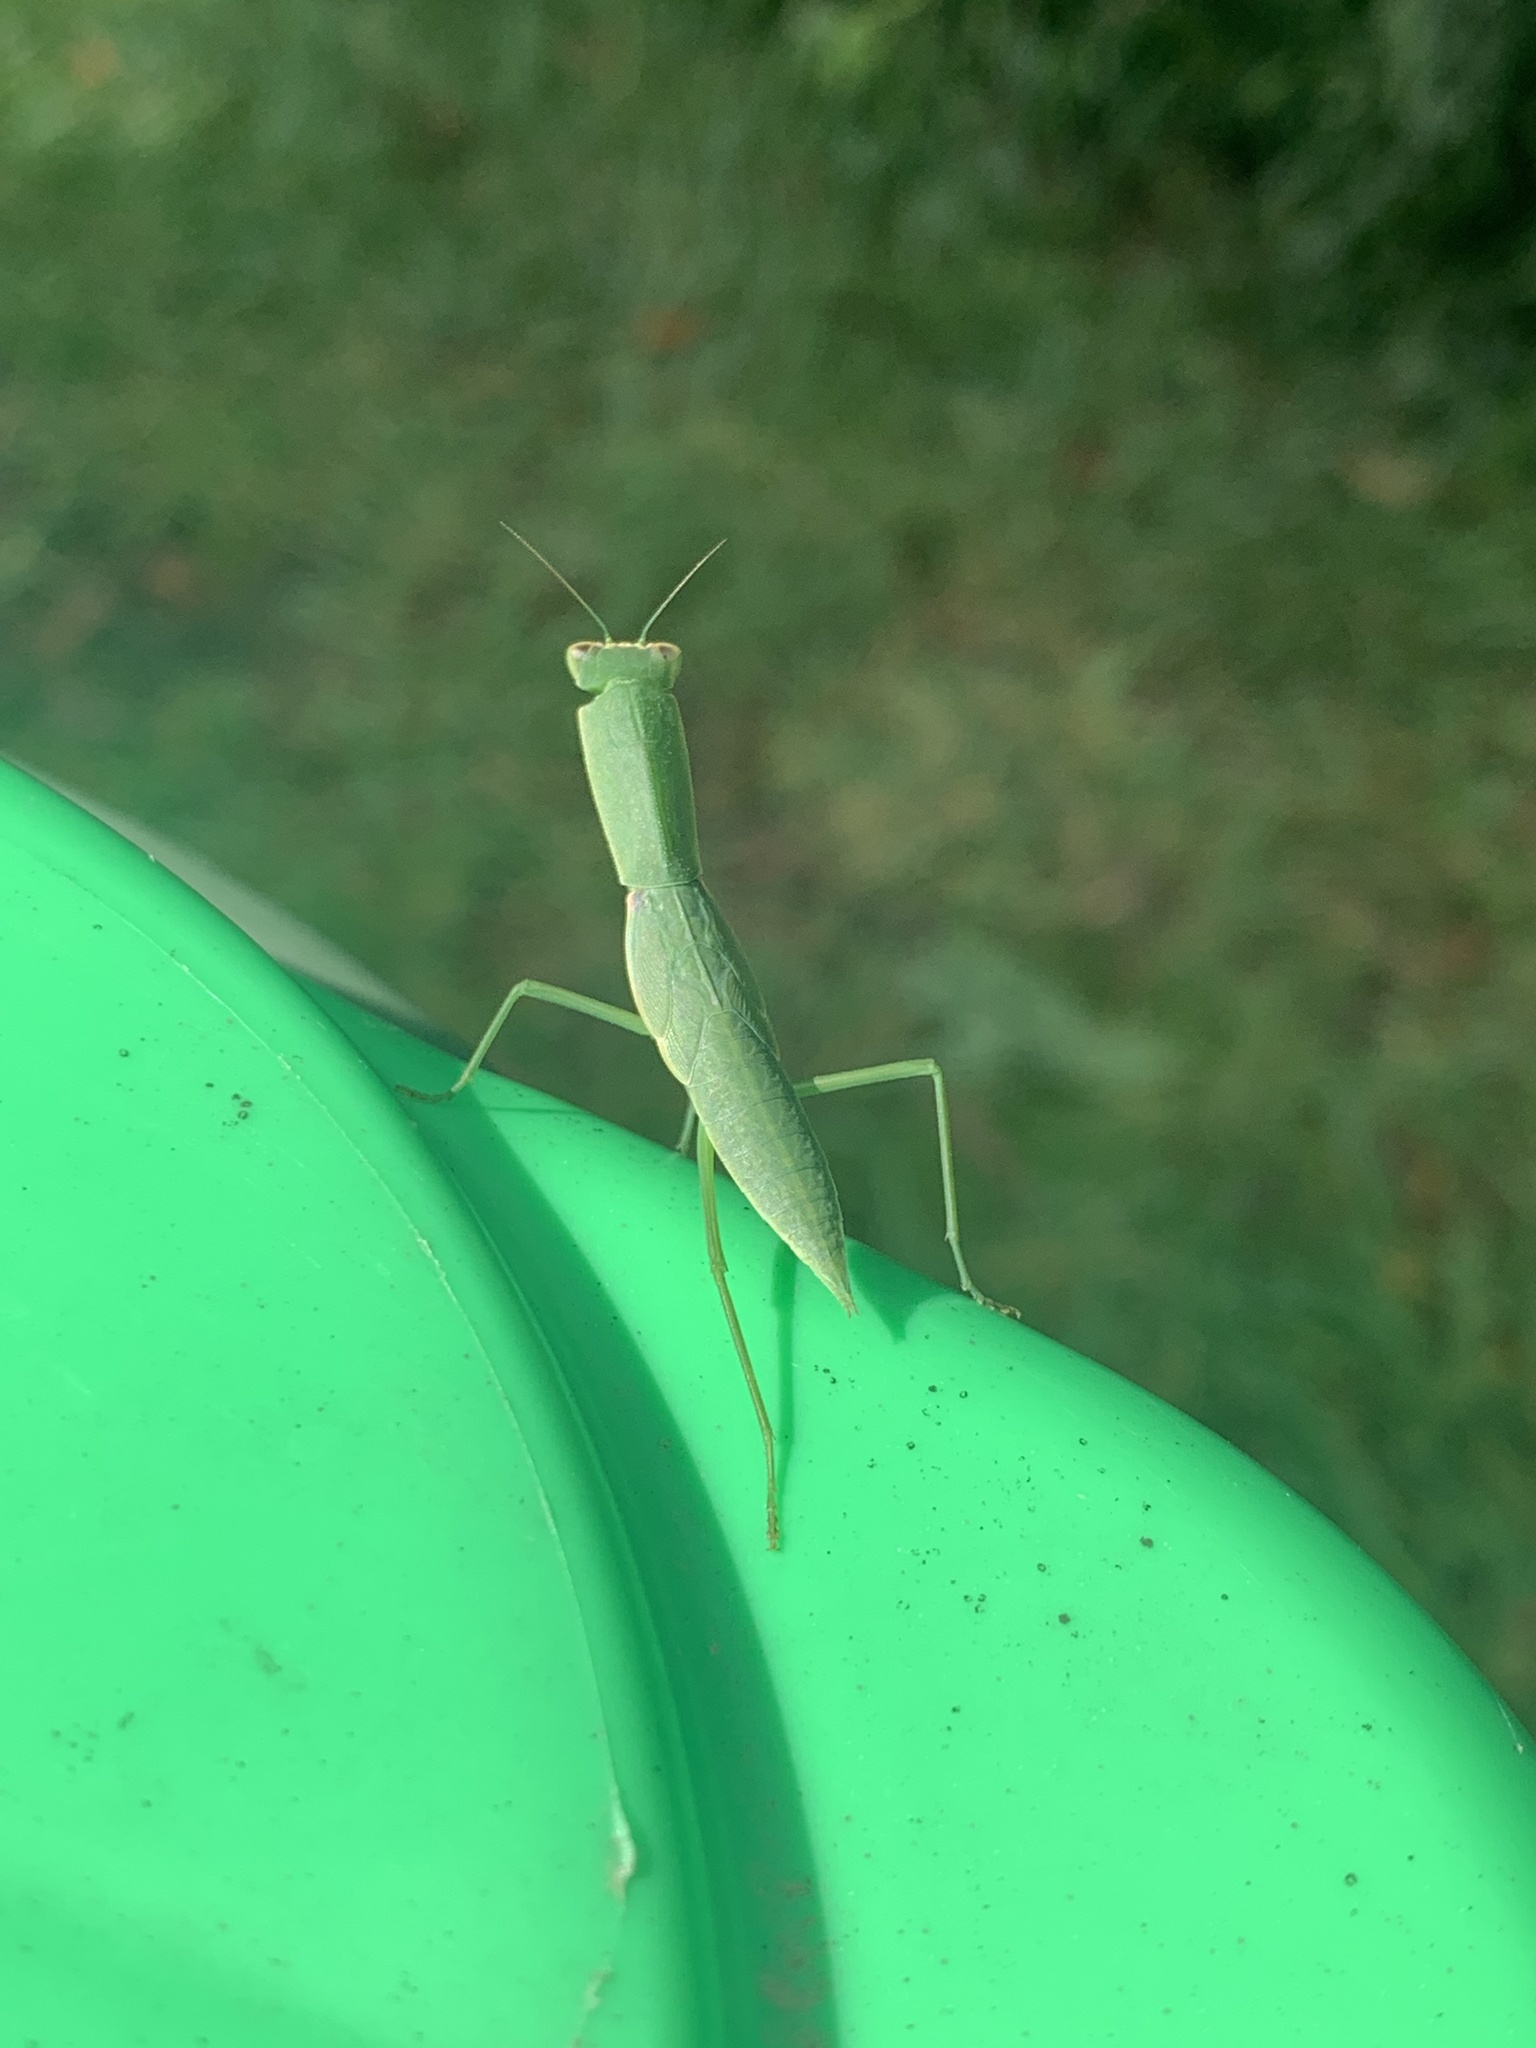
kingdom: Animalia
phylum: Arthropoda
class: Insecta
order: Mantodea
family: Mantidae
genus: Orthodera
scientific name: Orthodera ministralis
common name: Mantis
